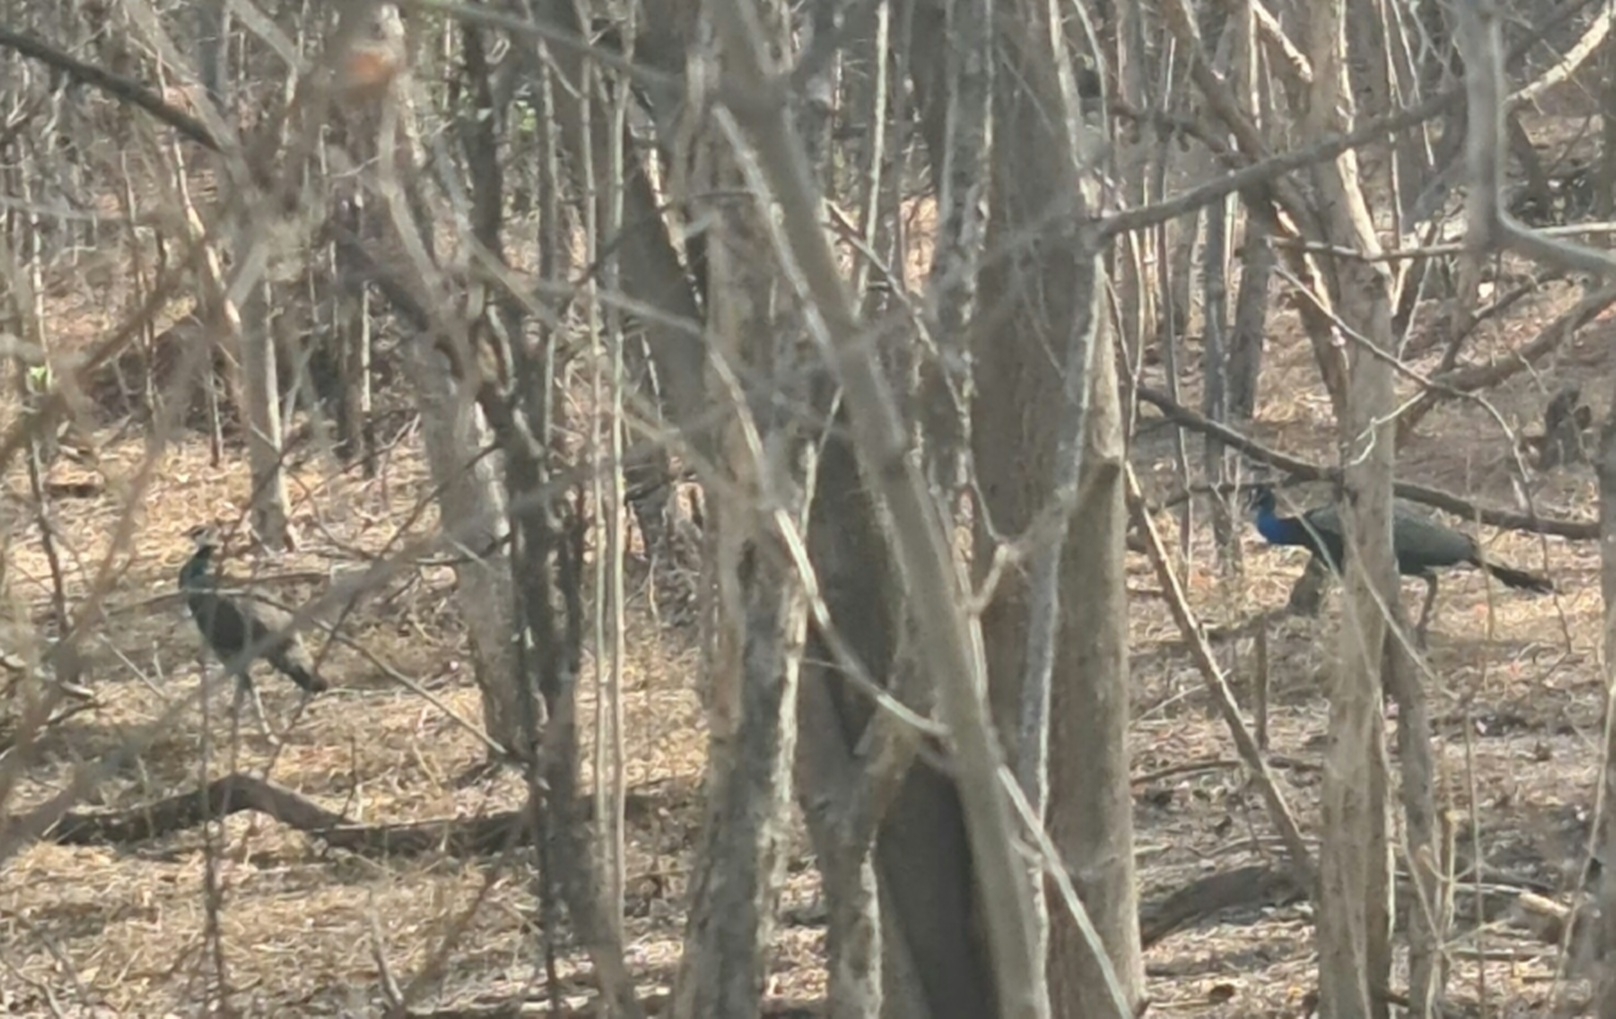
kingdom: Animalia
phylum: Chordata
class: Aves
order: Galliformes
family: Phasianidae
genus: Pavo
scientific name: Pavo cristatus
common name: Indian peafowl
